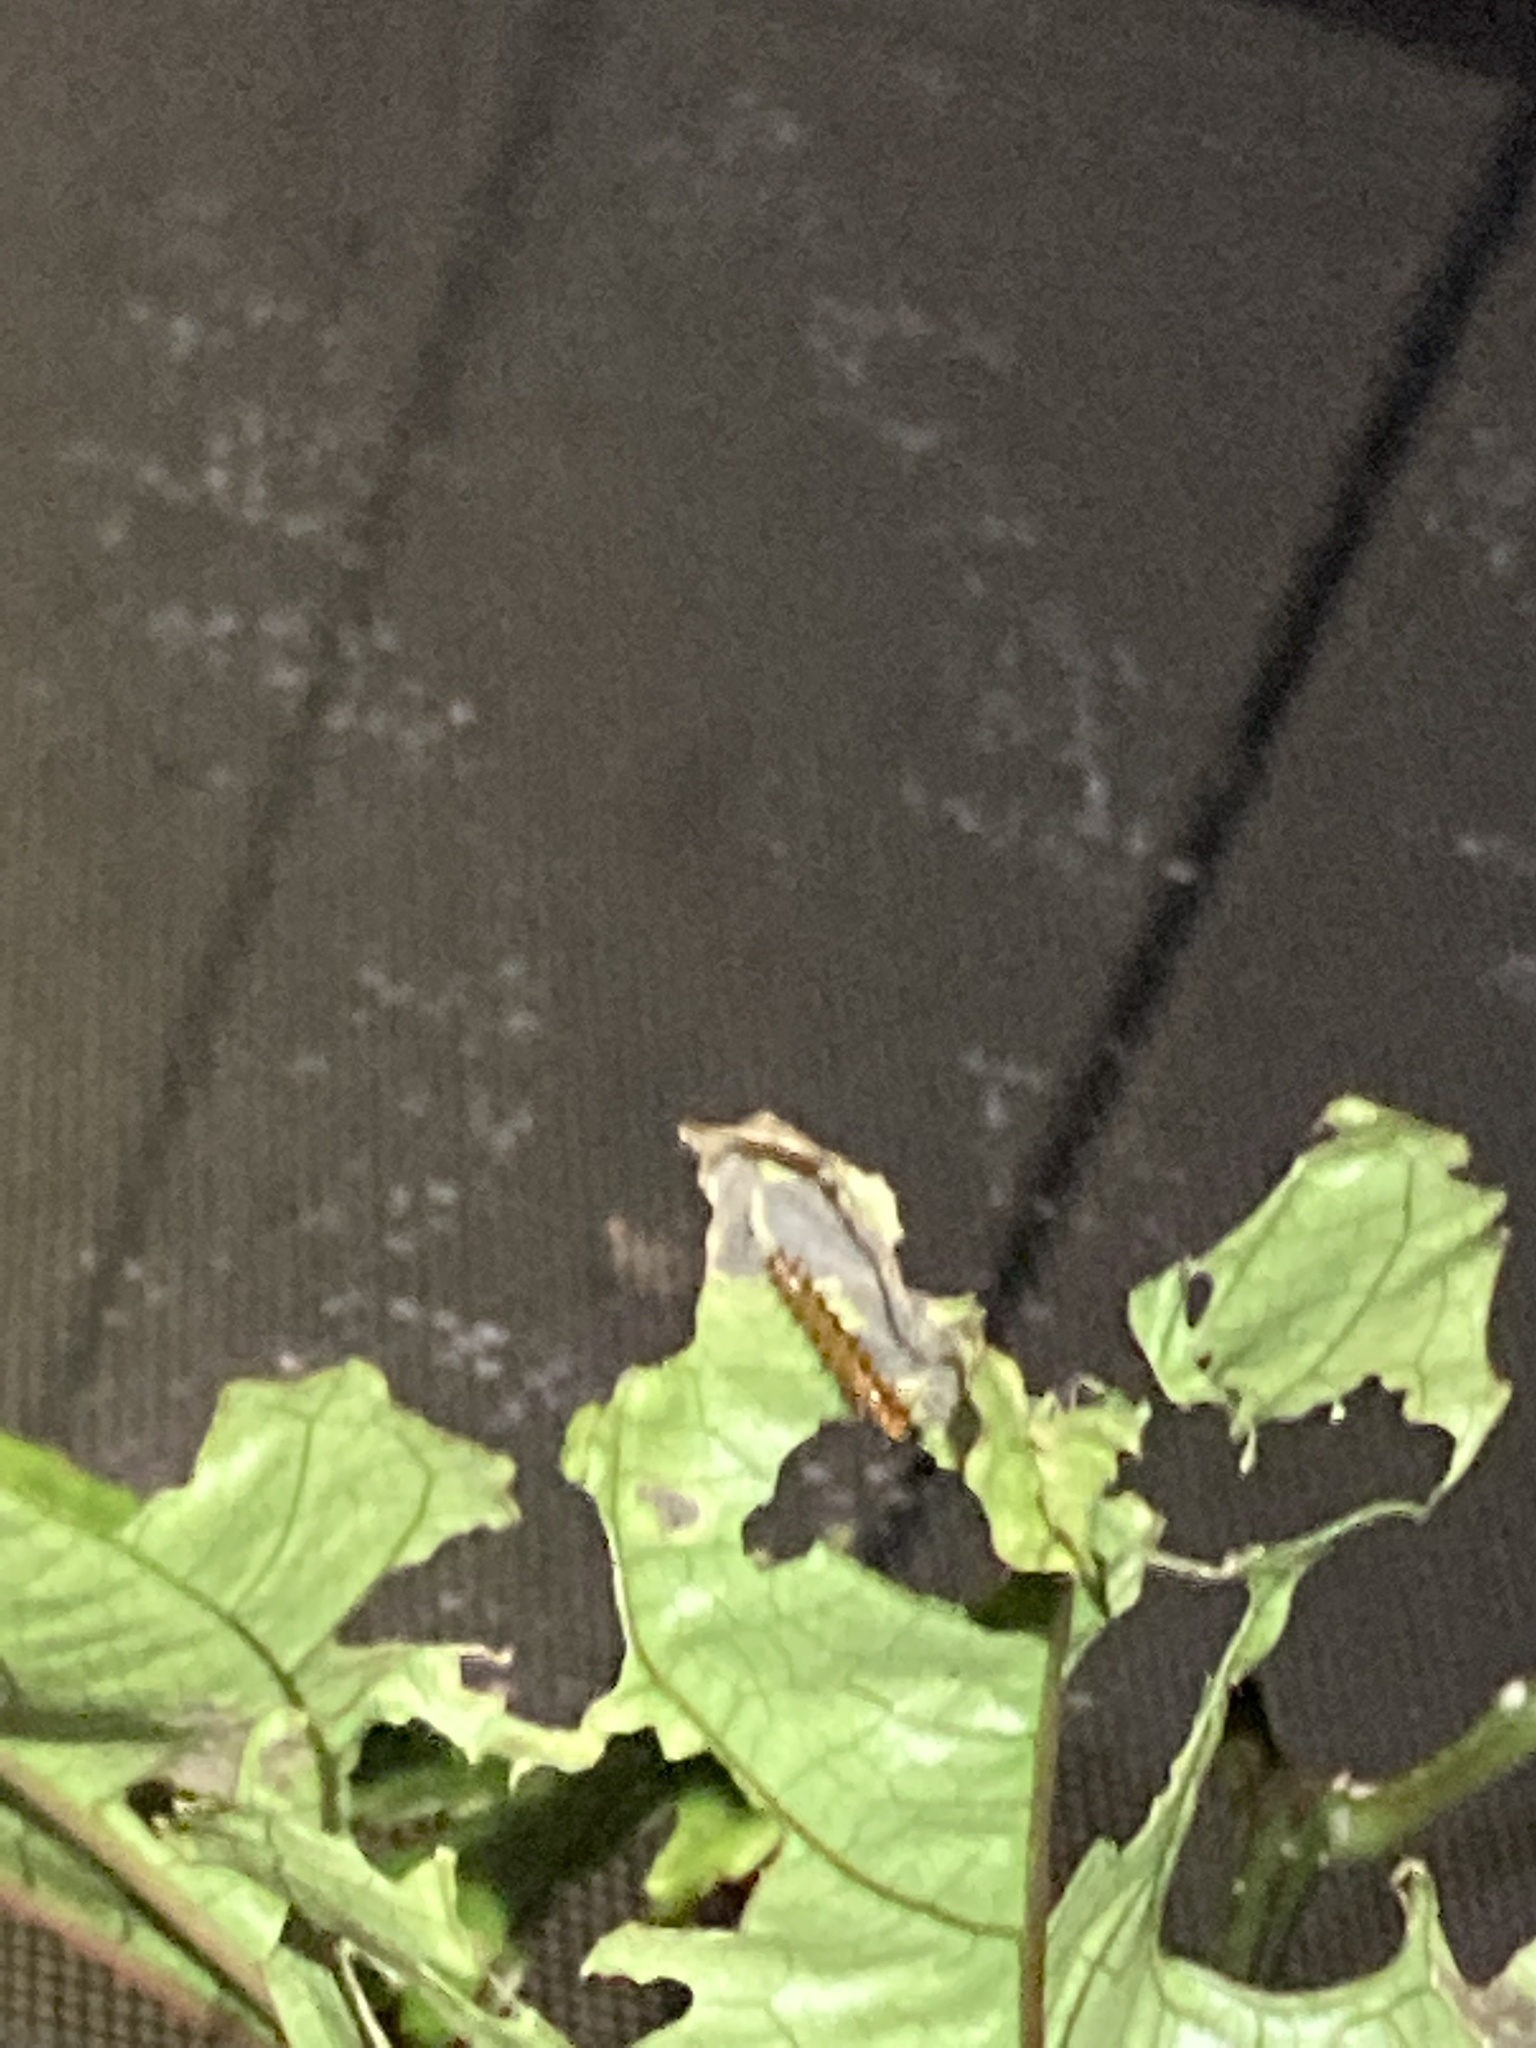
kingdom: Animalia
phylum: Arthropoda
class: Insecta
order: Lepidoptera
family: Nymphalidae
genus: Dione
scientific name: Dione vanillae
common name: Gulf fritillary
